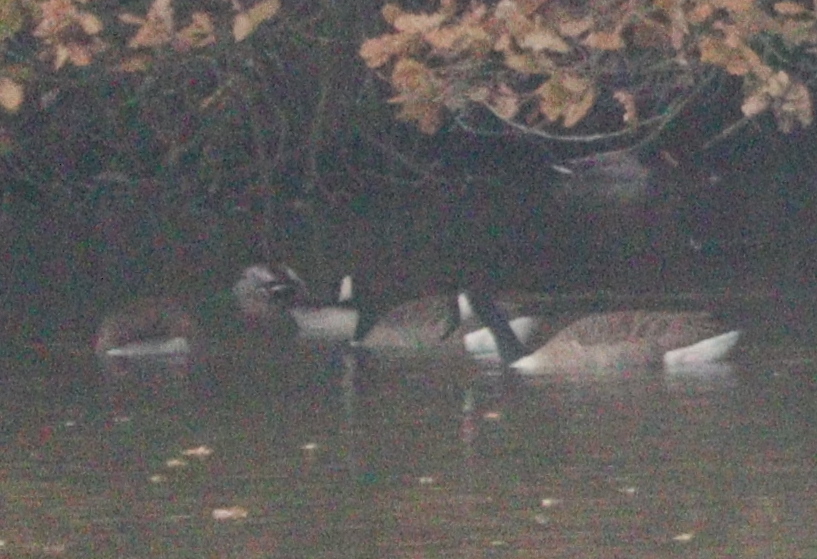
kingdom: Animalia
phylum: Chordata
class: Aves
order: Anseriformes
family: Anatidae
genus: Branta
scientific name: Branta canadensis
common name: Canada goose
